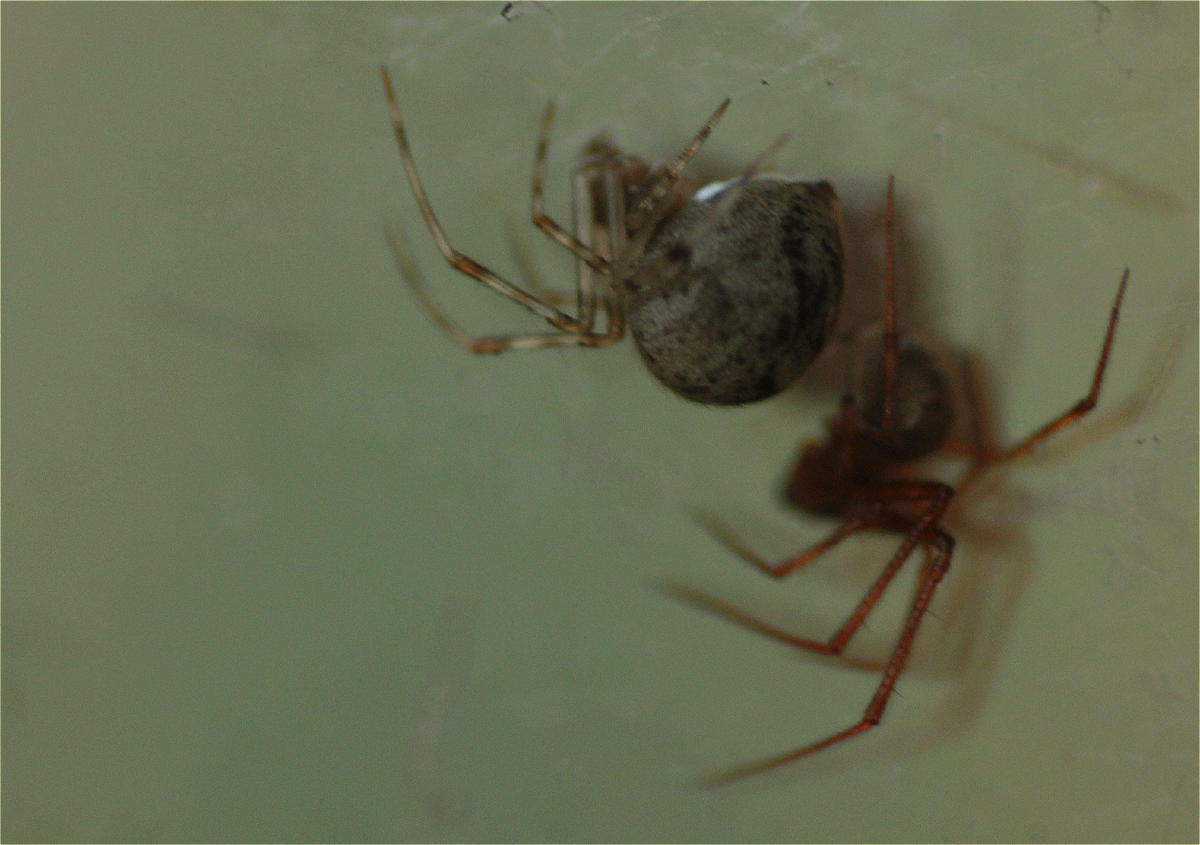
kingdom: Animalia
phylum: Arthropoda
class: Arachnida
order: Araneae
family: Theridiidae
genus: Parasteatoda
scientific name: Parasteatoda tepidariorum
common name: Common house spider
